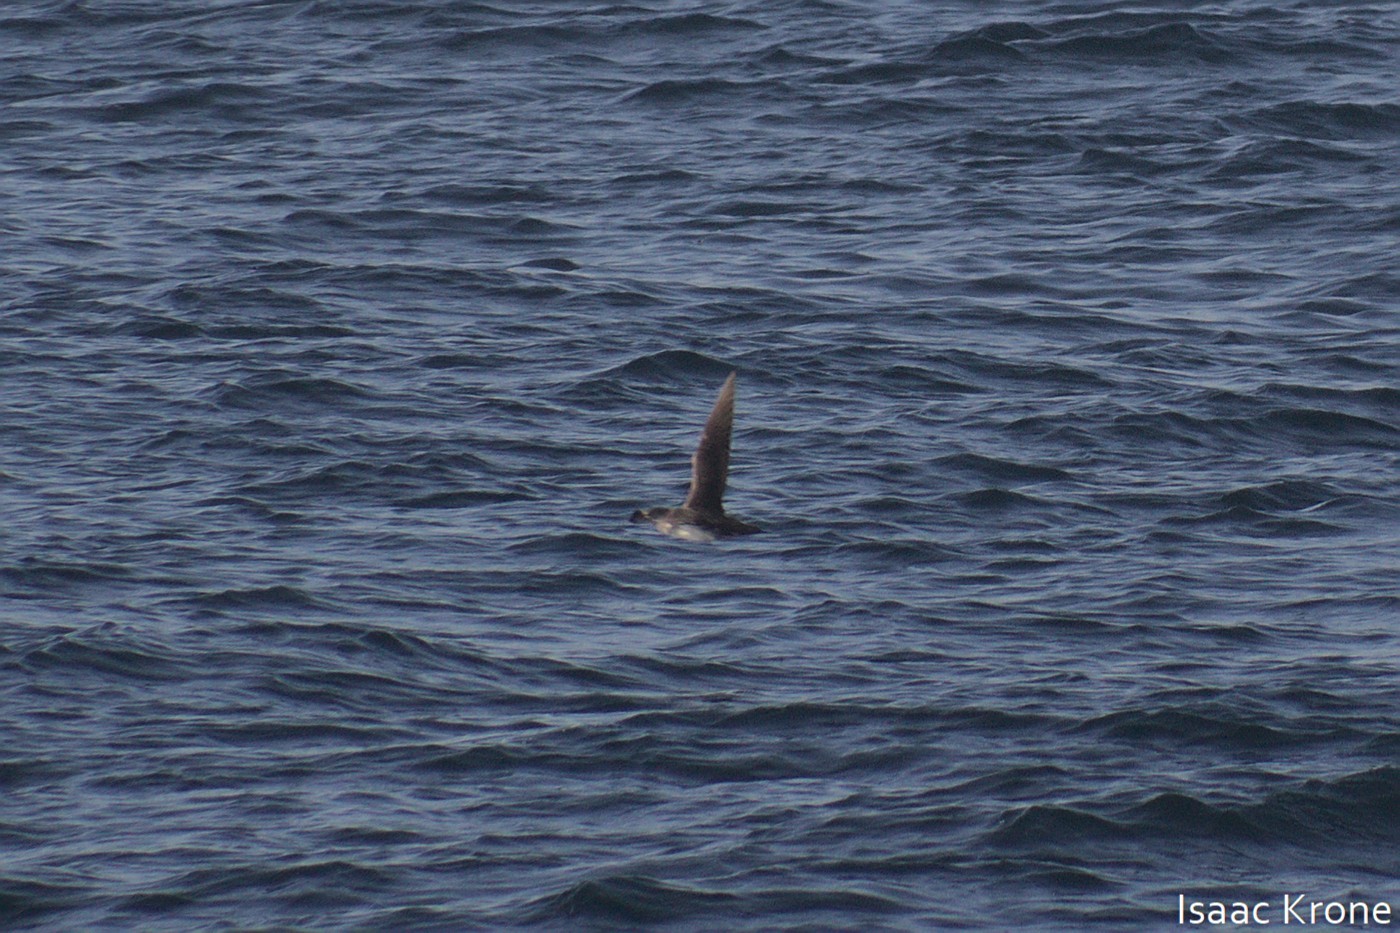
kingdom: Animalia
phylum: Chordata
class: Aves
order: Procellariiformes
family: Procellariidae
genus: Puffinus
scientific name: Puffinus opisthomelas
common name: Black-vented shearwater
